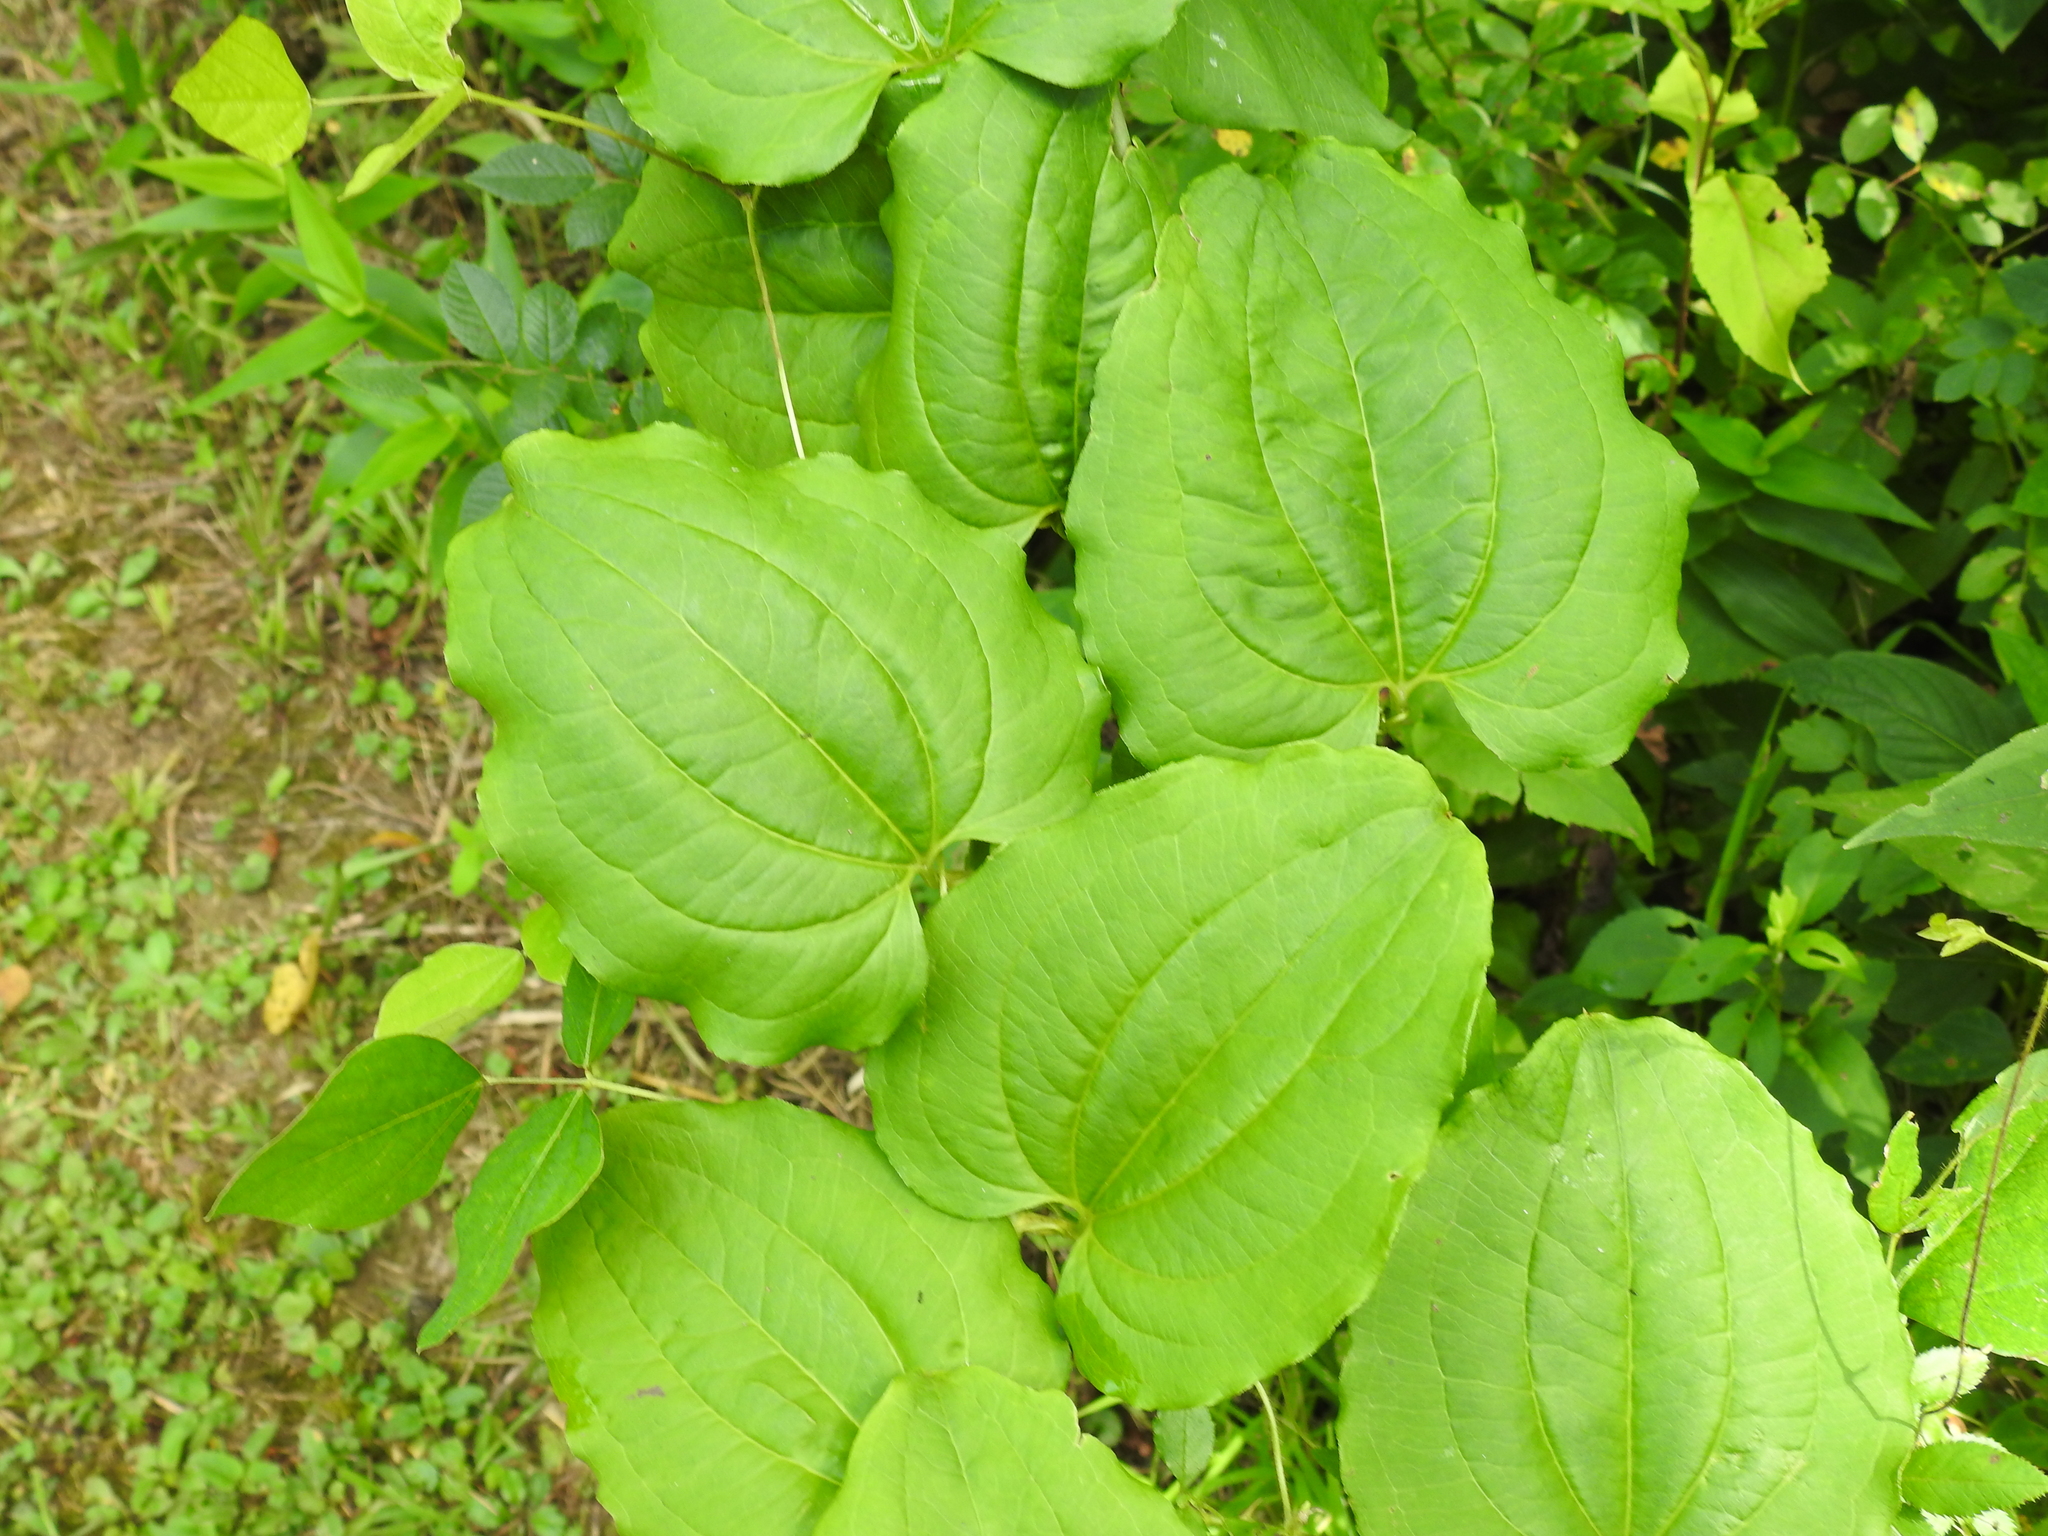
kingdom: Plantae
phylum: Tracheophyta
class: Liliopsida
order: Liliales
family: Smilacaceae
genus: Smilax
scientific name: Smilax tamnoides
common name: Hellfetter
